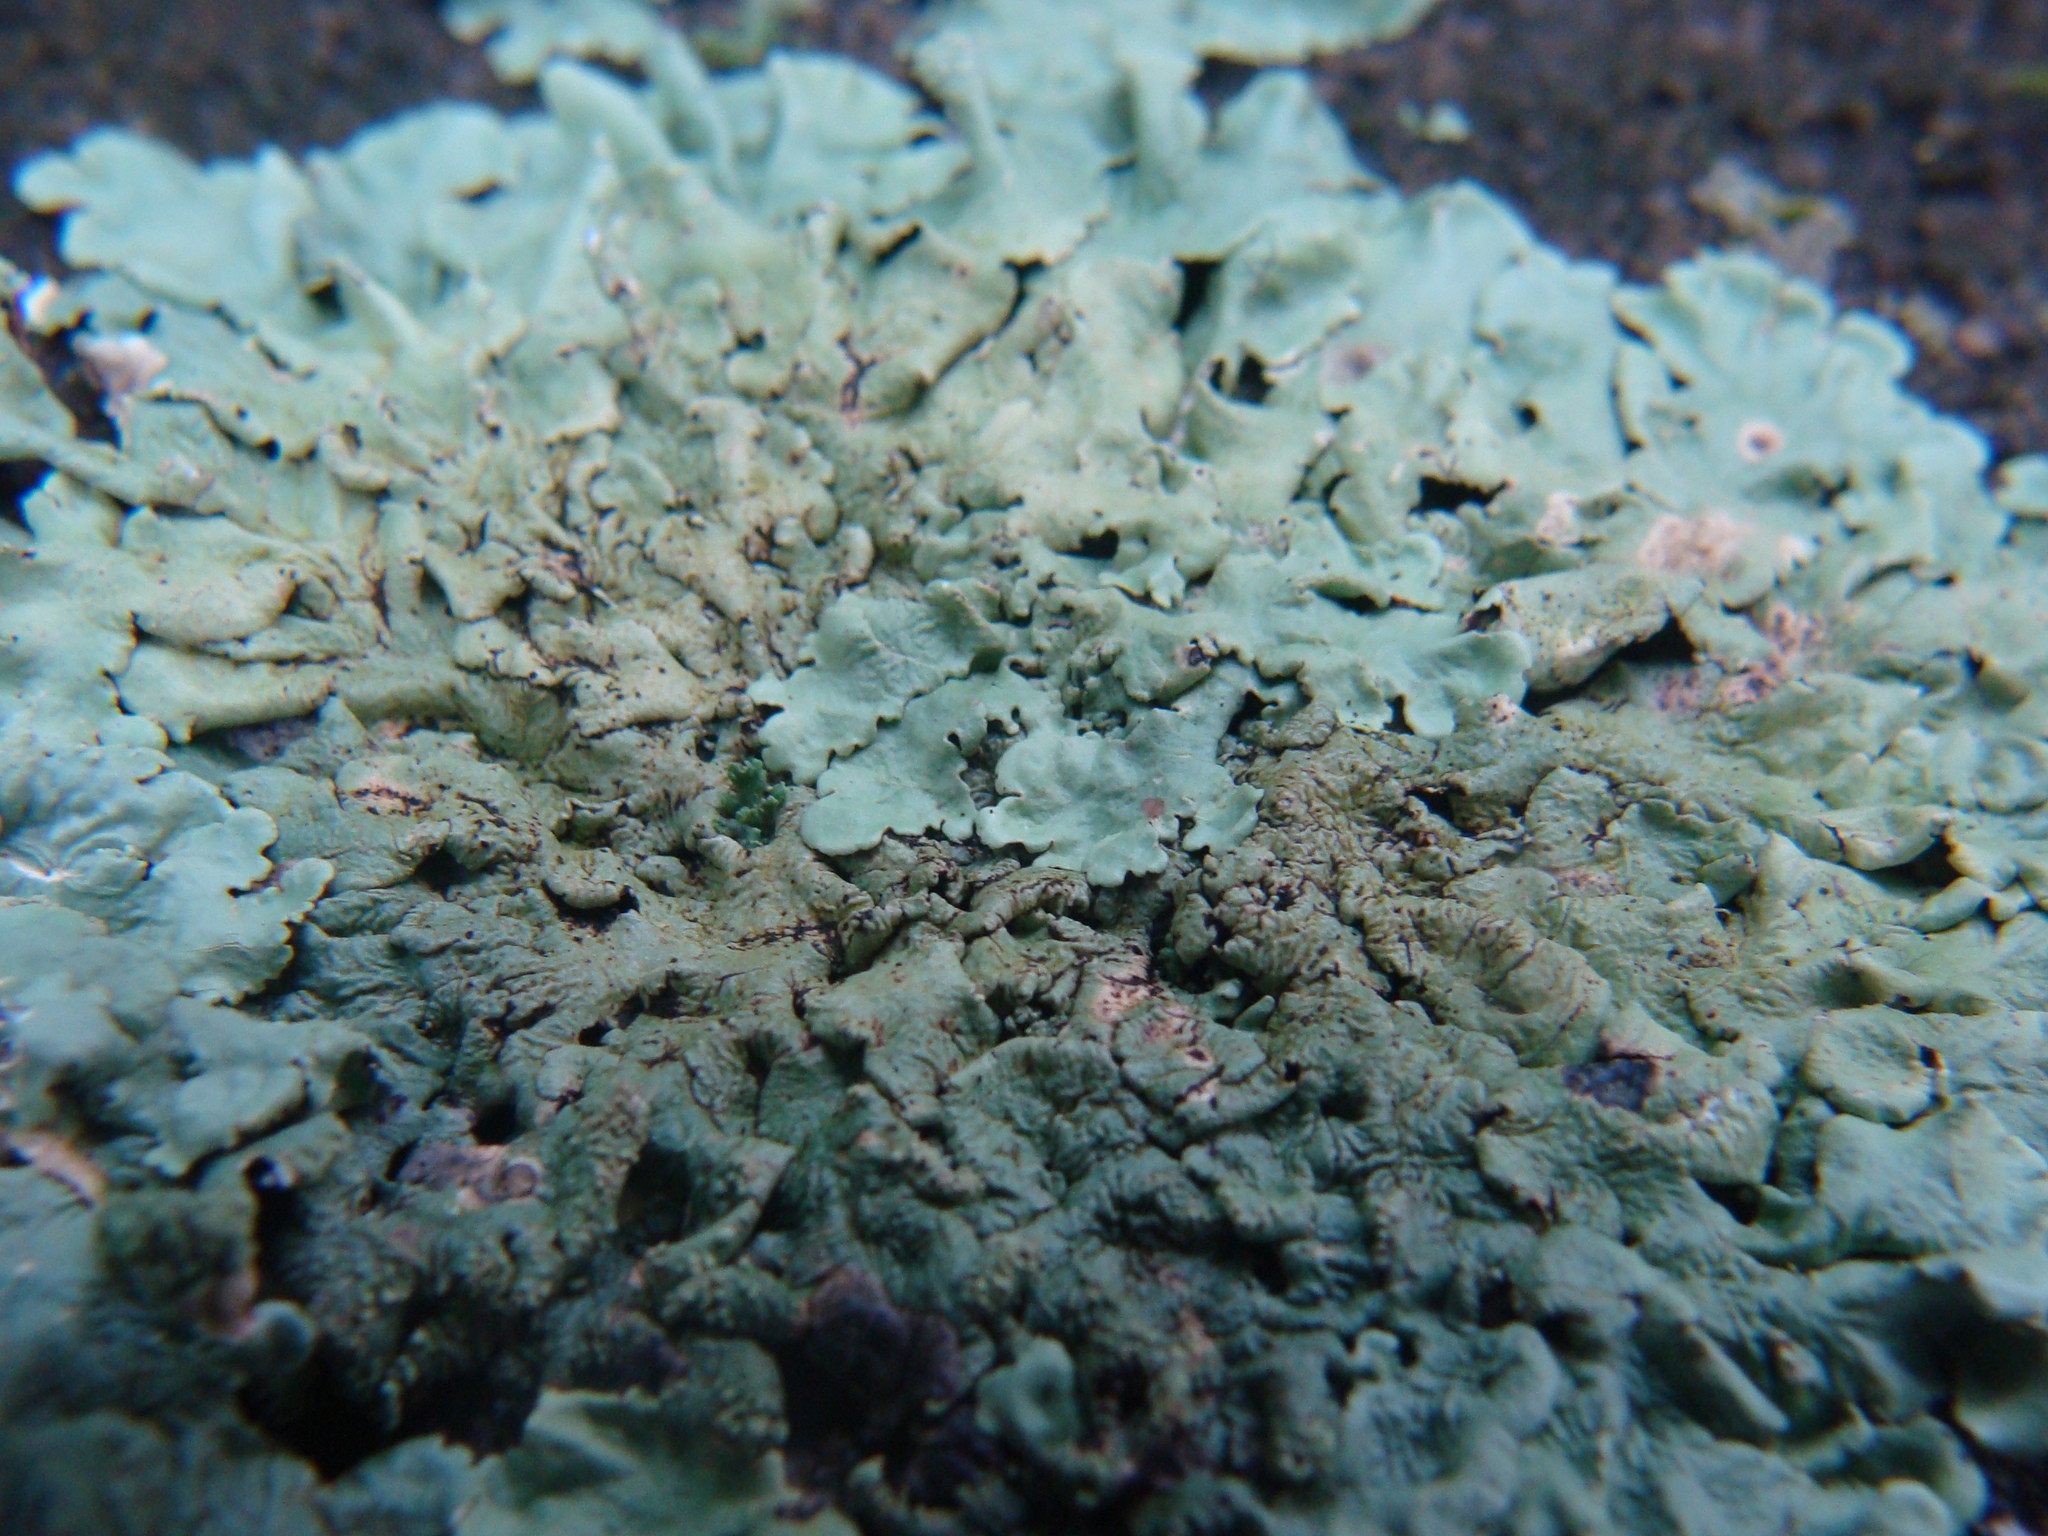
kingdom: Fungi
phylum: Ascomycota
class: Lecanoromycetes
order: Lecanorales
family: Parmeliaceae
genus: Flavoparmelia
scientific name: Flavoparmelia caperata
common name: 40-mile per hour lichen
